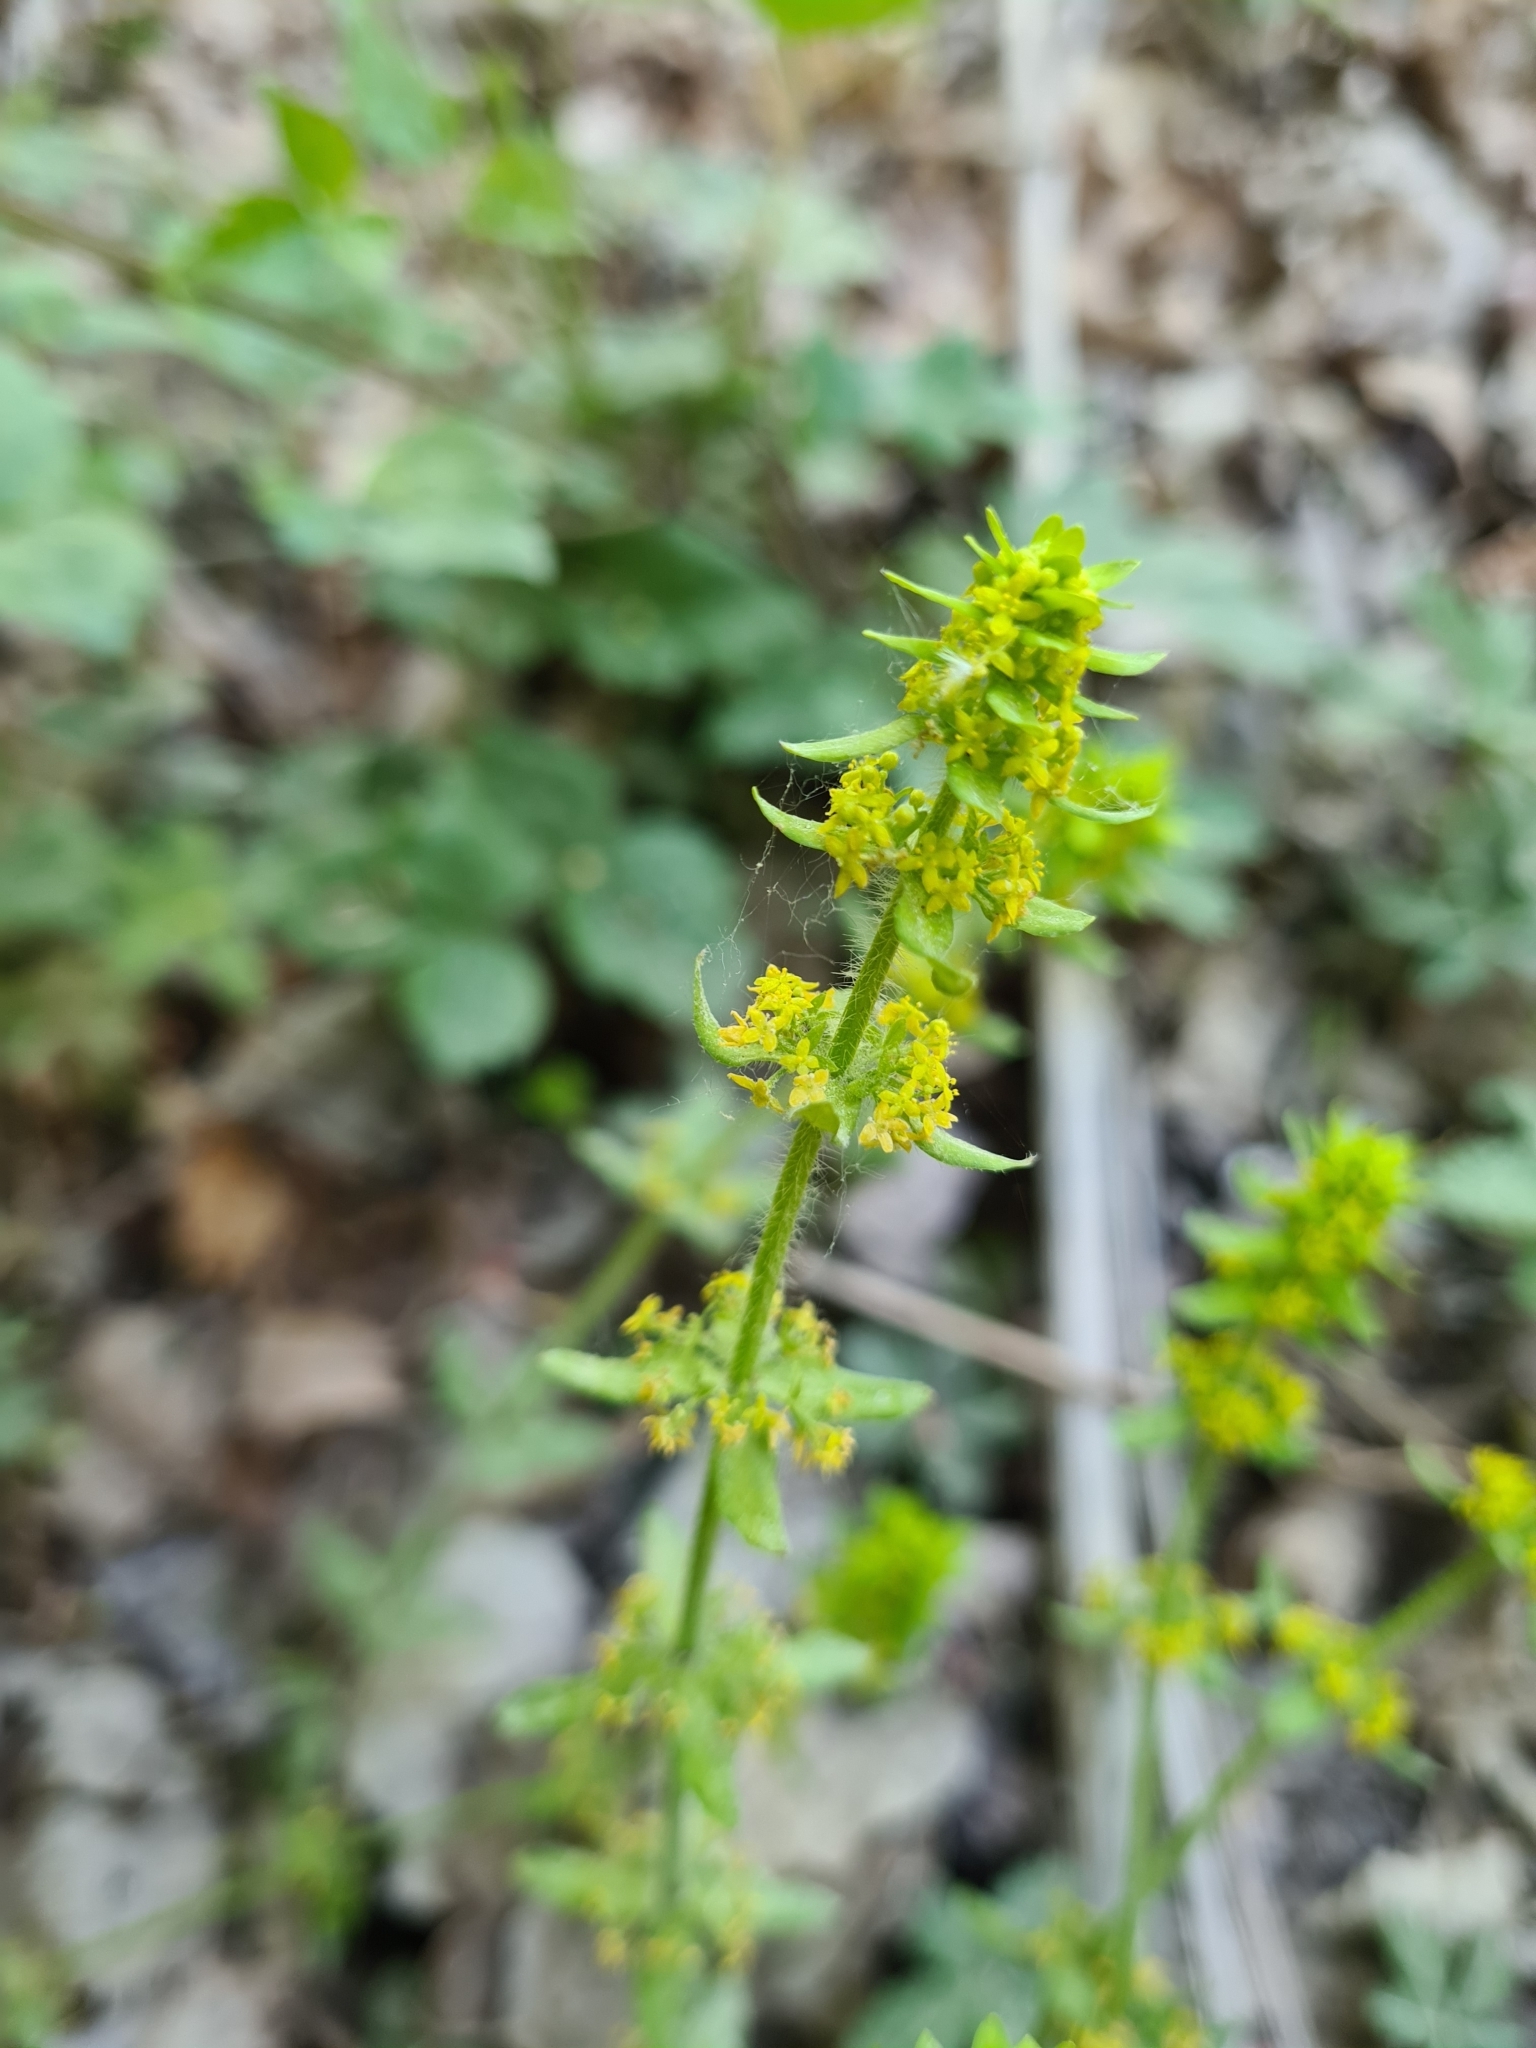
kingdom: Plantae
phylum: Tracheophyta
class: Magnoliopsida
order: Gentianales
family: Rubiaceae
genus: Cruciata
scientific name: Cruciata laevipes
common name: Crosswort
